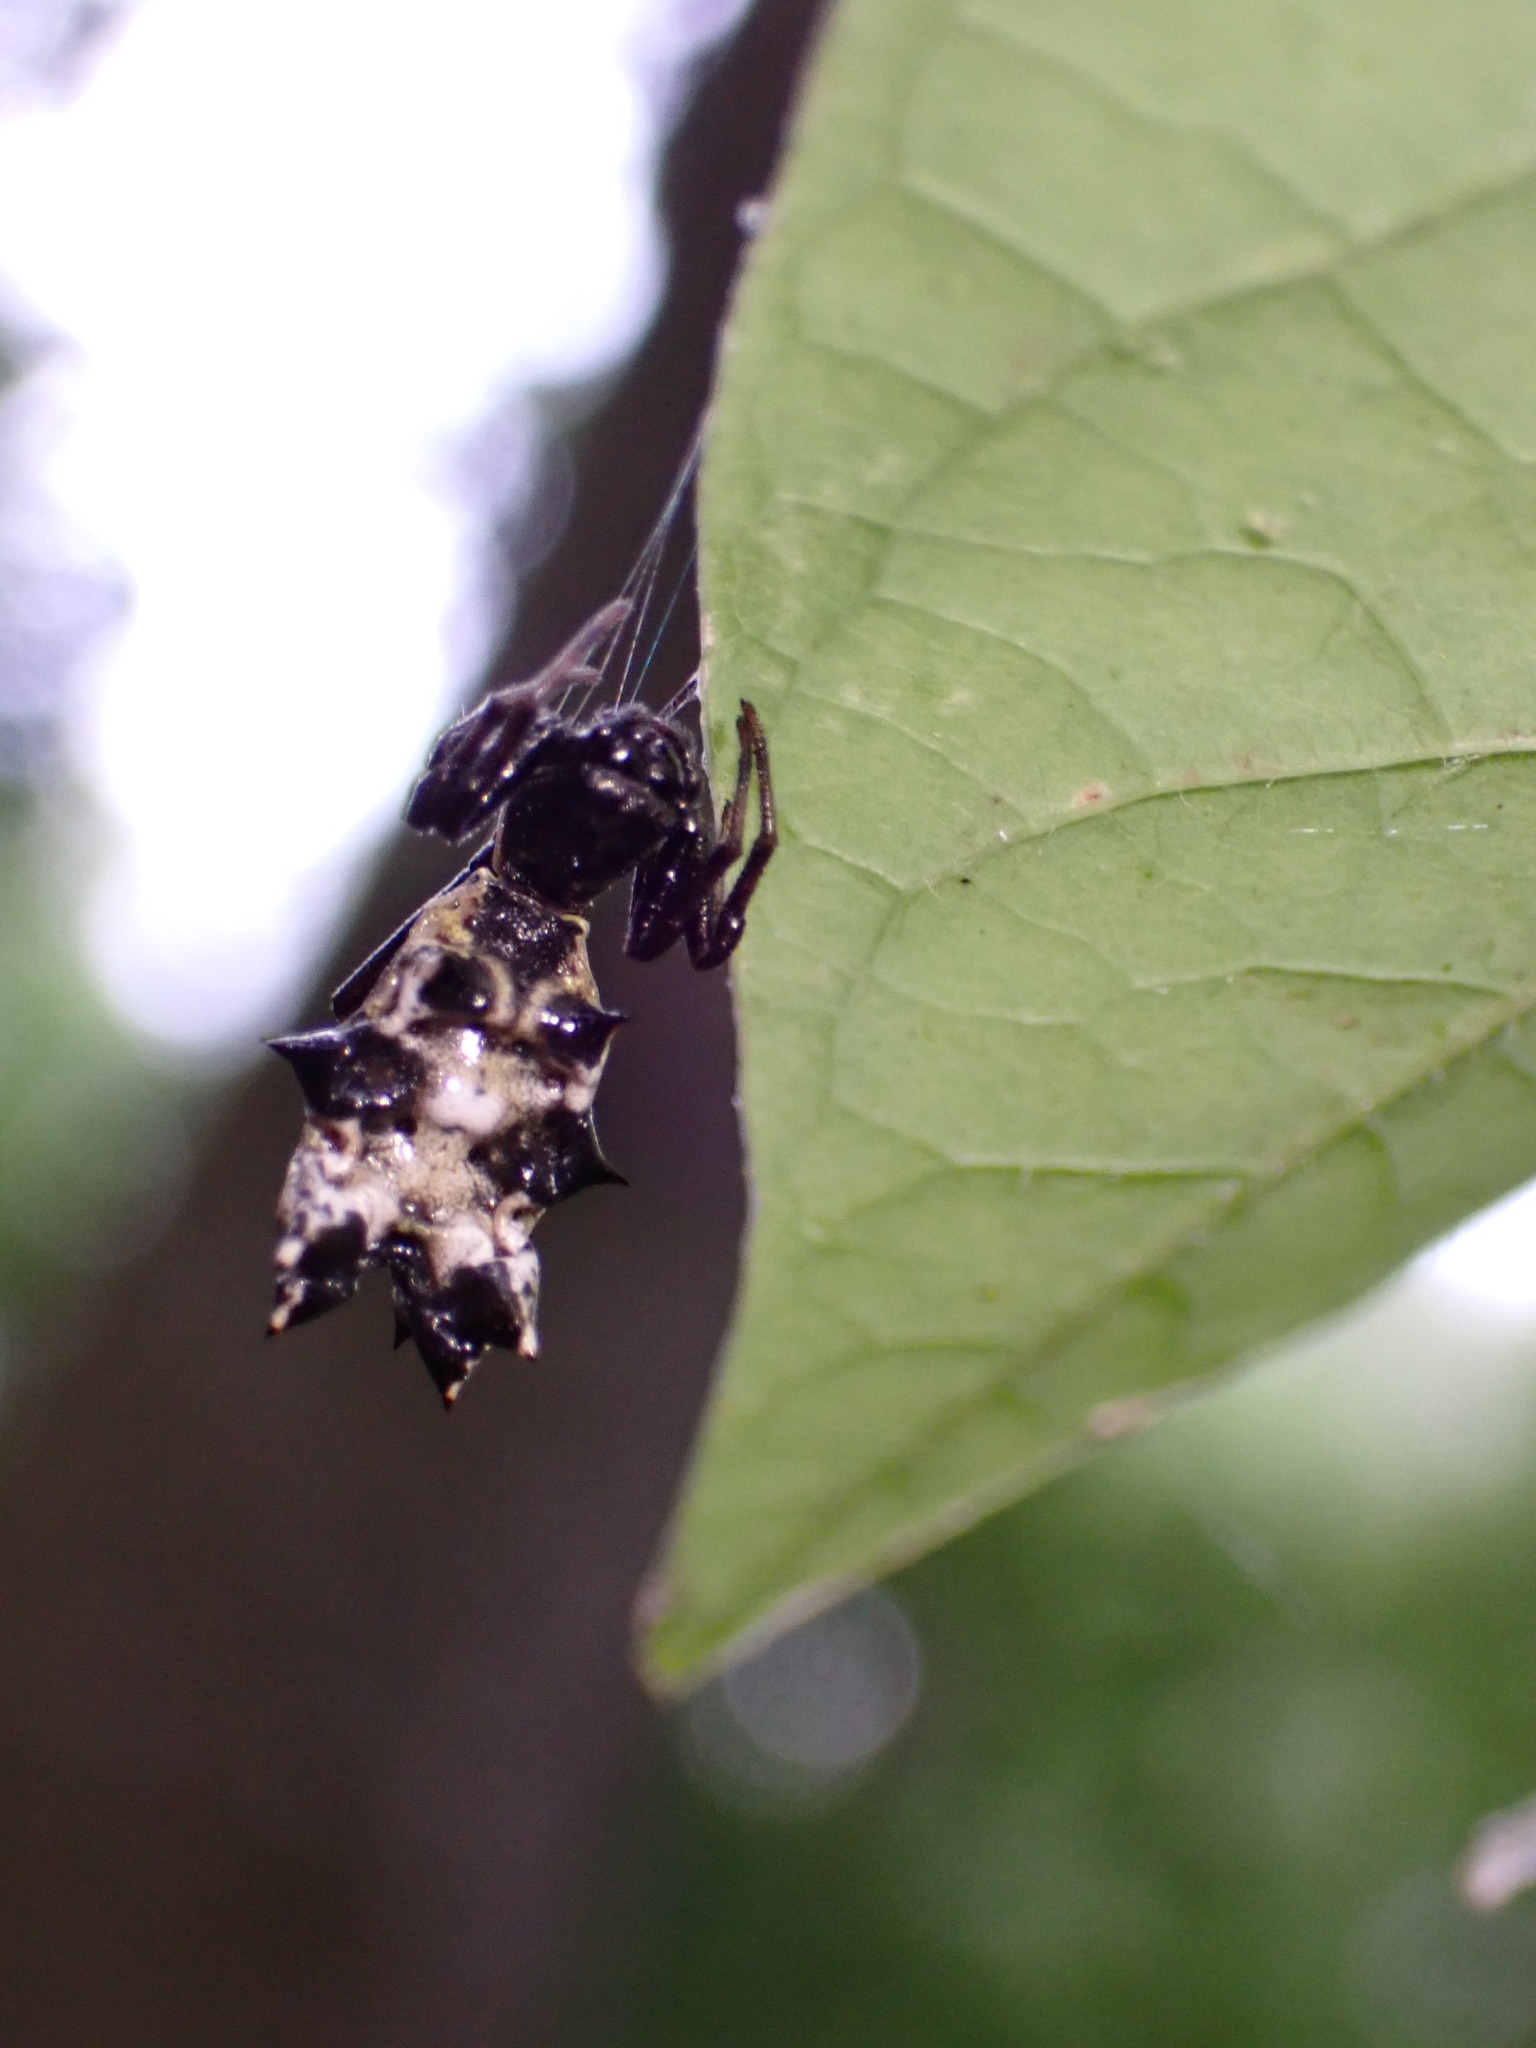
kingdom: Animalia
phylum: Arthropoda
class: Arachnida
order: Araneae
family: Araneidae
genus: Micrathena
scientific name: Micrathena gracilis
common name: Orb weavers
